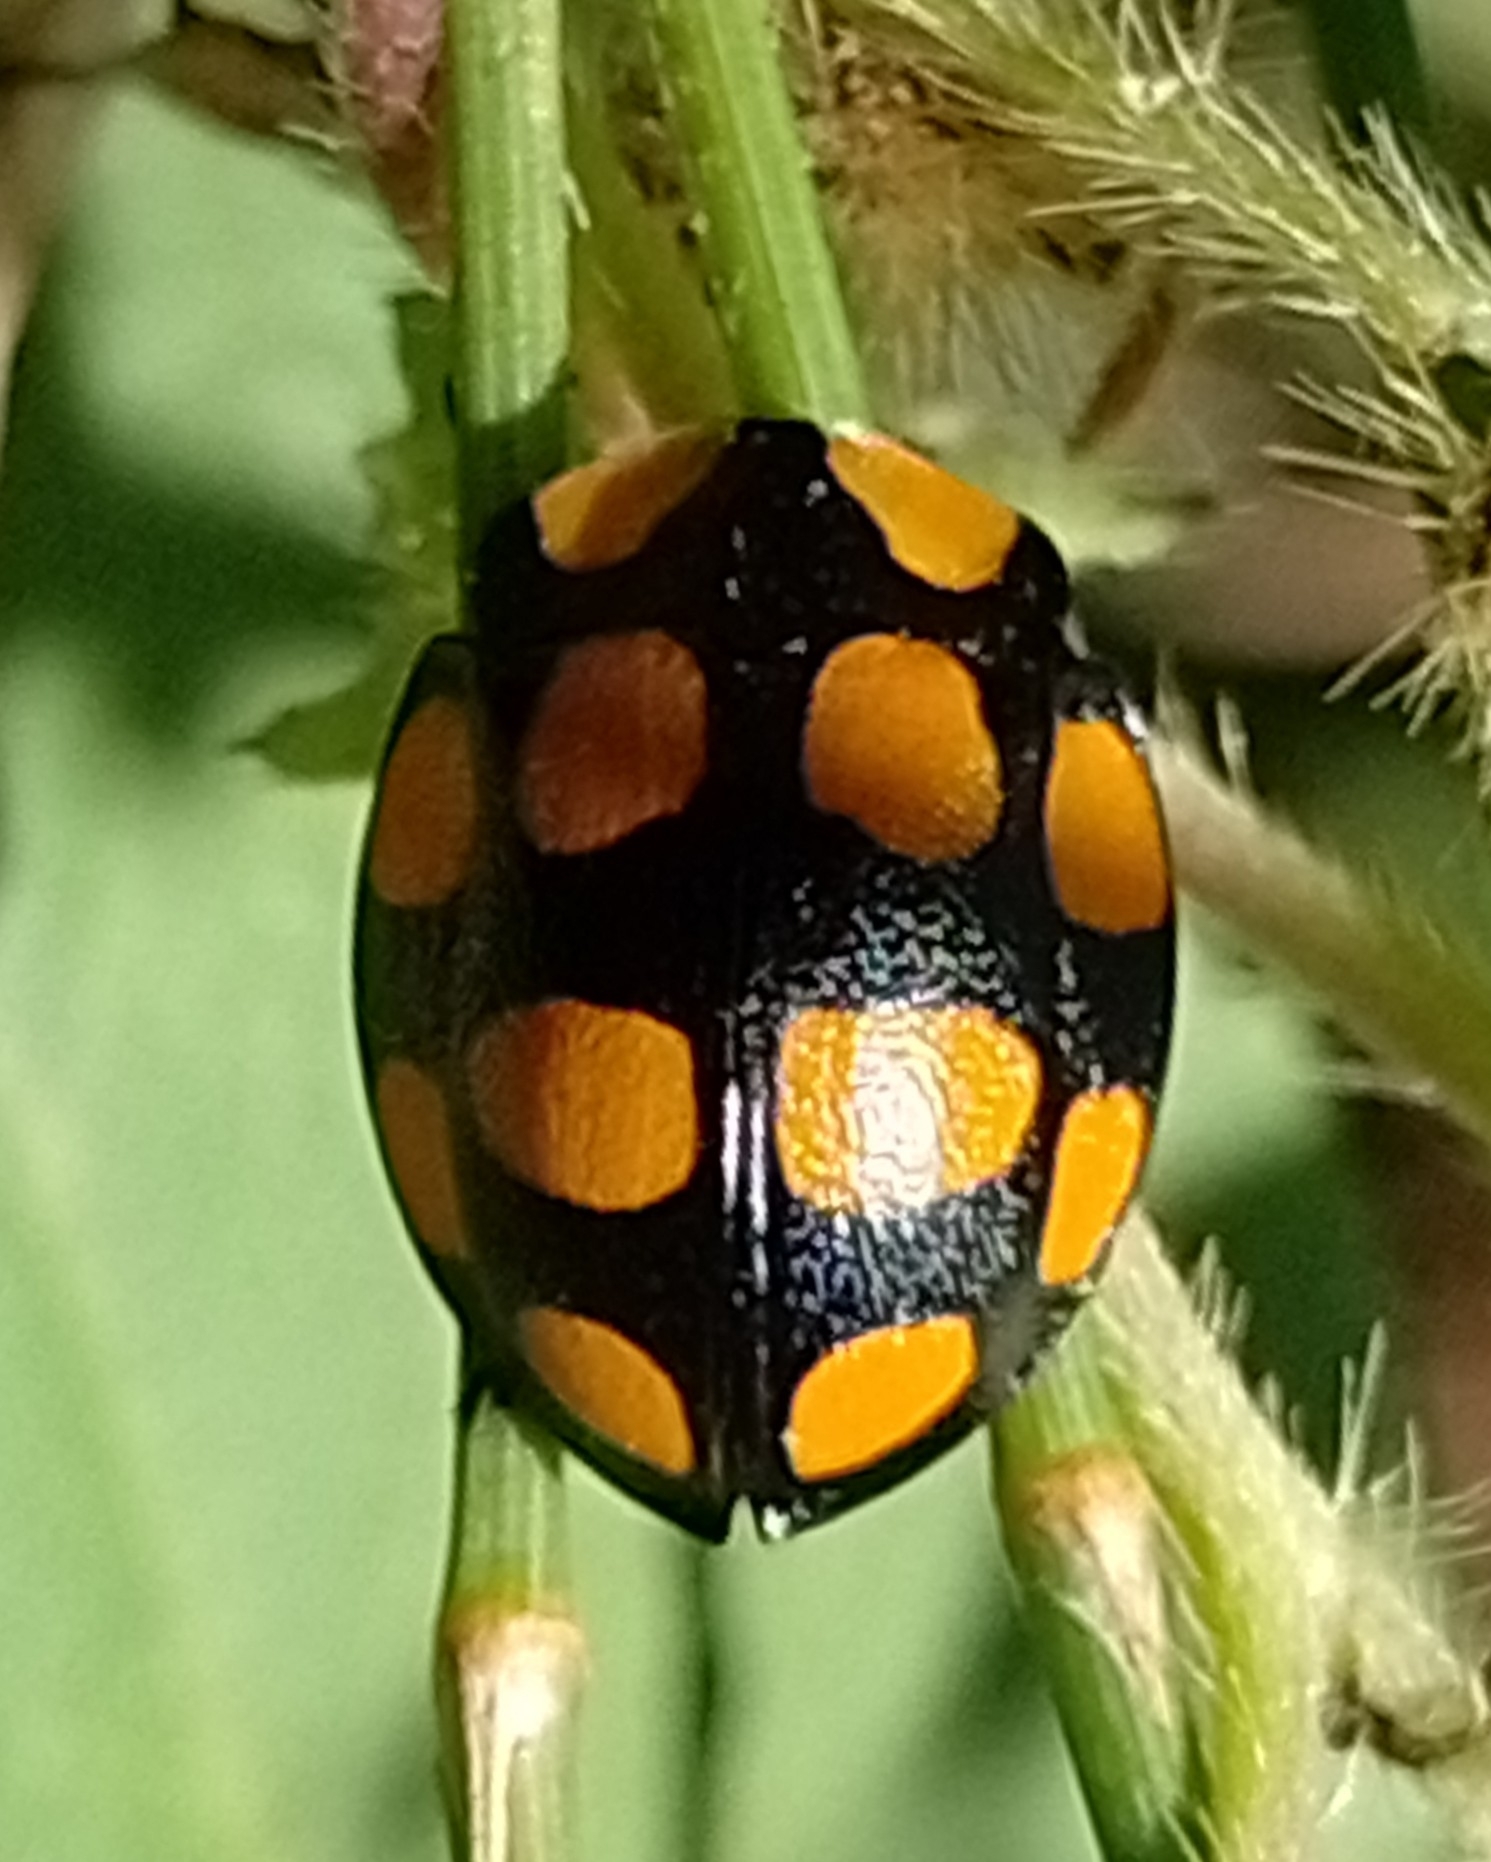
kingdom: Animalia
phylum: Arthropoda
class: Insecta
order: Coleoptera
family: Chrysomelidae
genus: Botanochara
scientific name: Botanochara decempustulata
